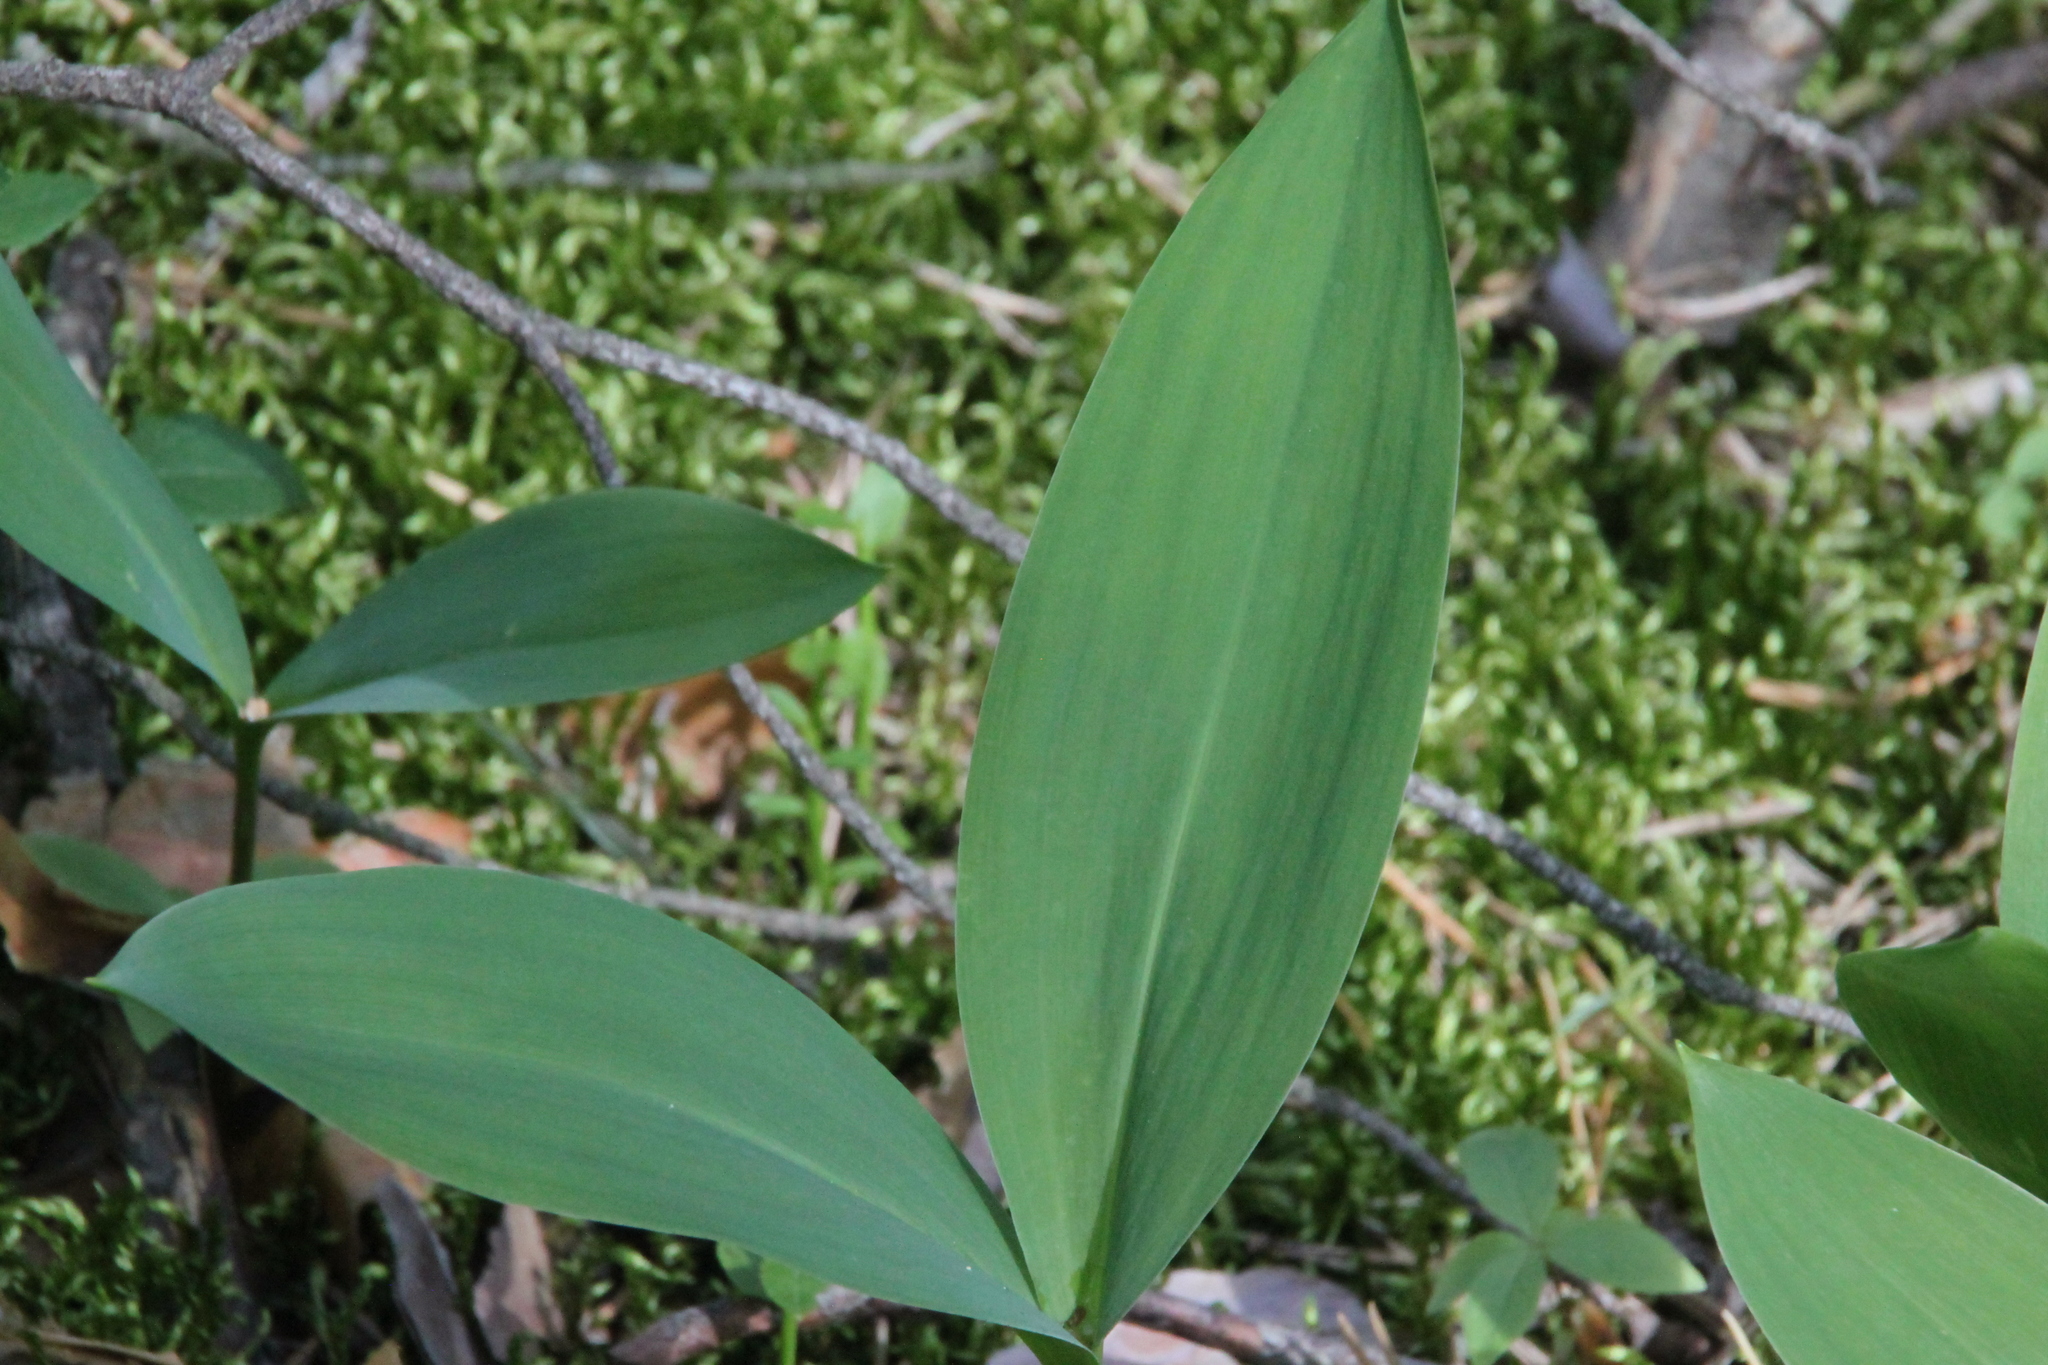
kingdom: Plantae
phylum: Tracheophyta
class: Liliopsida
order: Asparagales
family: Asparagaceae
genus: Convallaria
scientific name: Convallaria majalis
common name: Lily-of-the-valley
